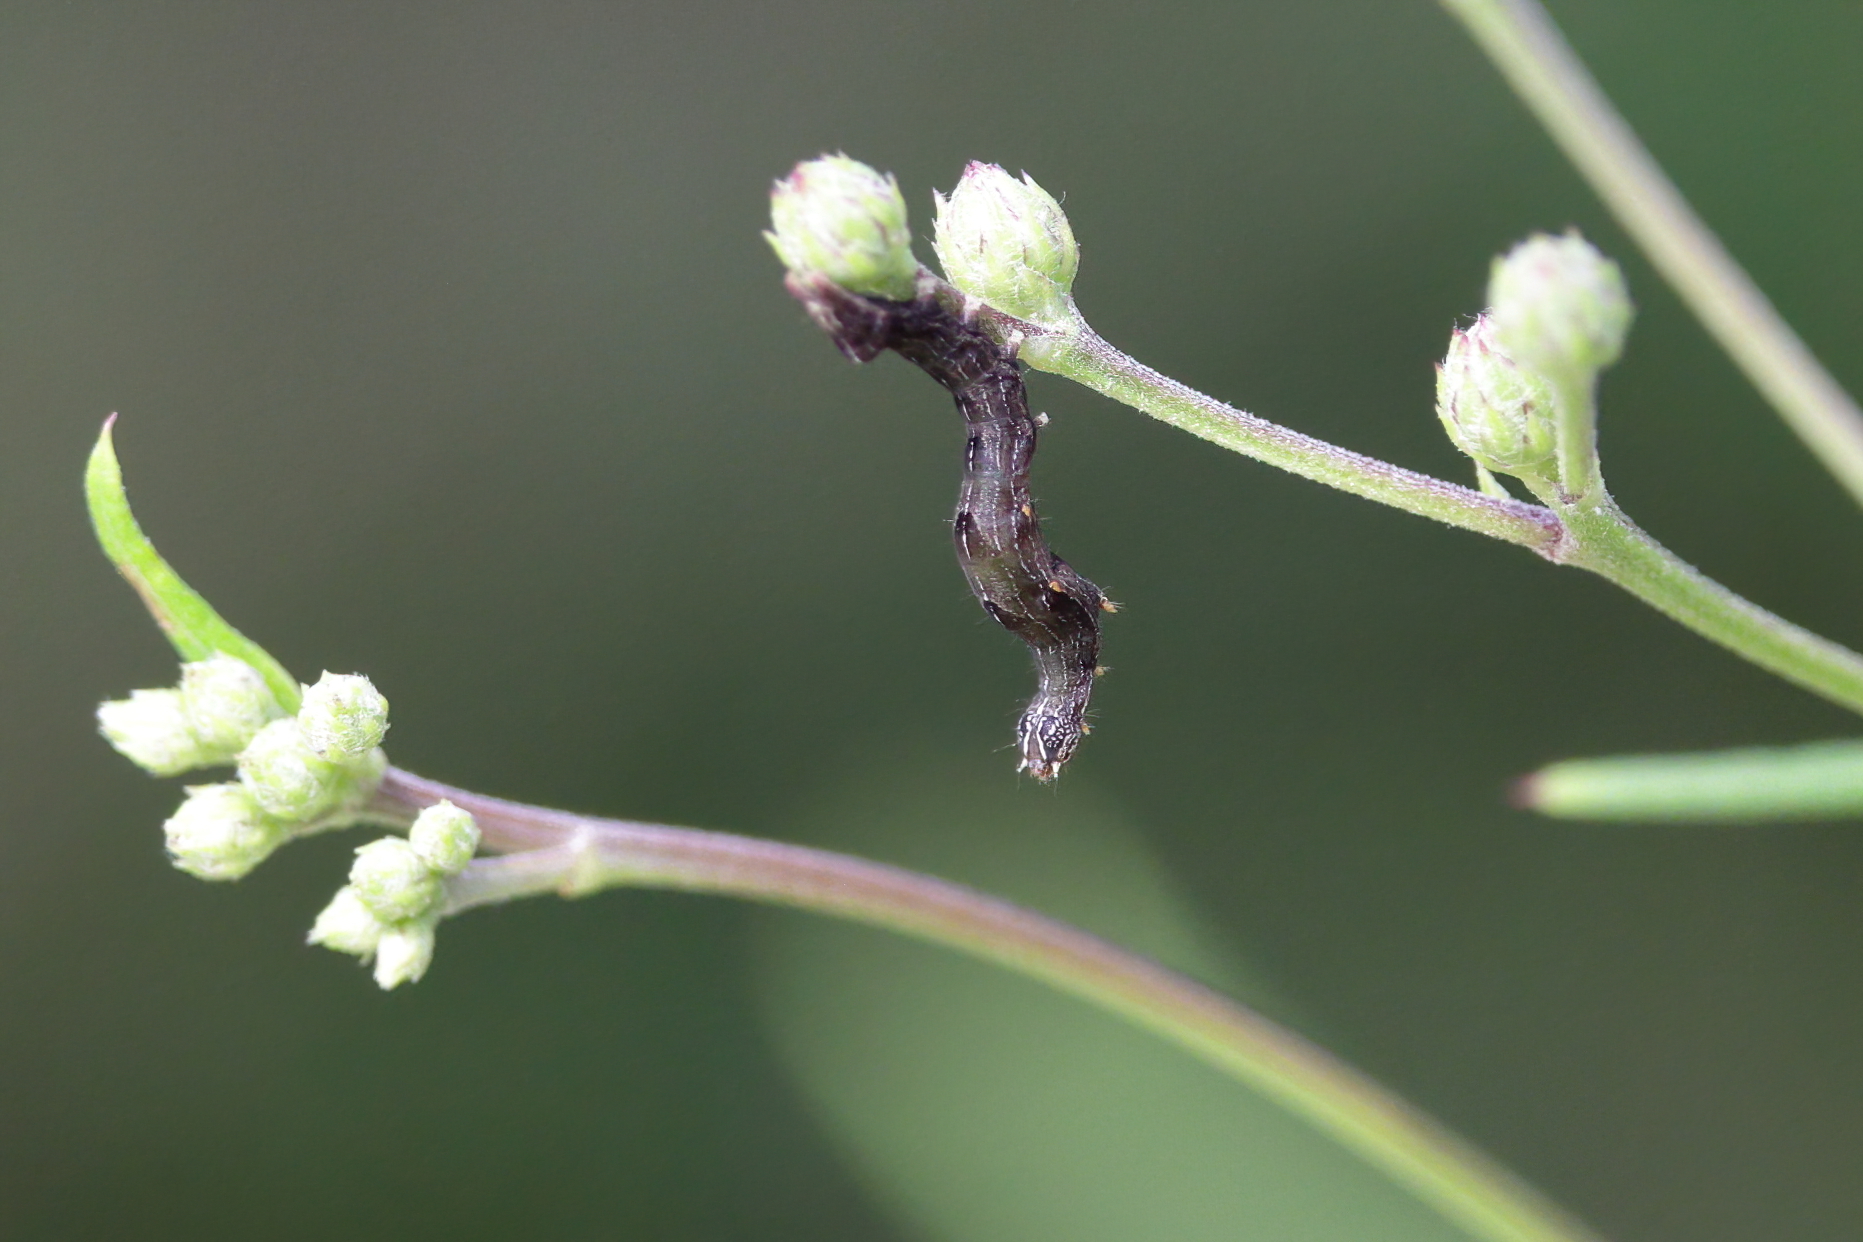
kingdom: Animalia
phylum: Arthropoda
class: Insecta
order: Lepidoptera
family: Noctuidae
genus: Perigea
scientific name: Perigea xanthioides
